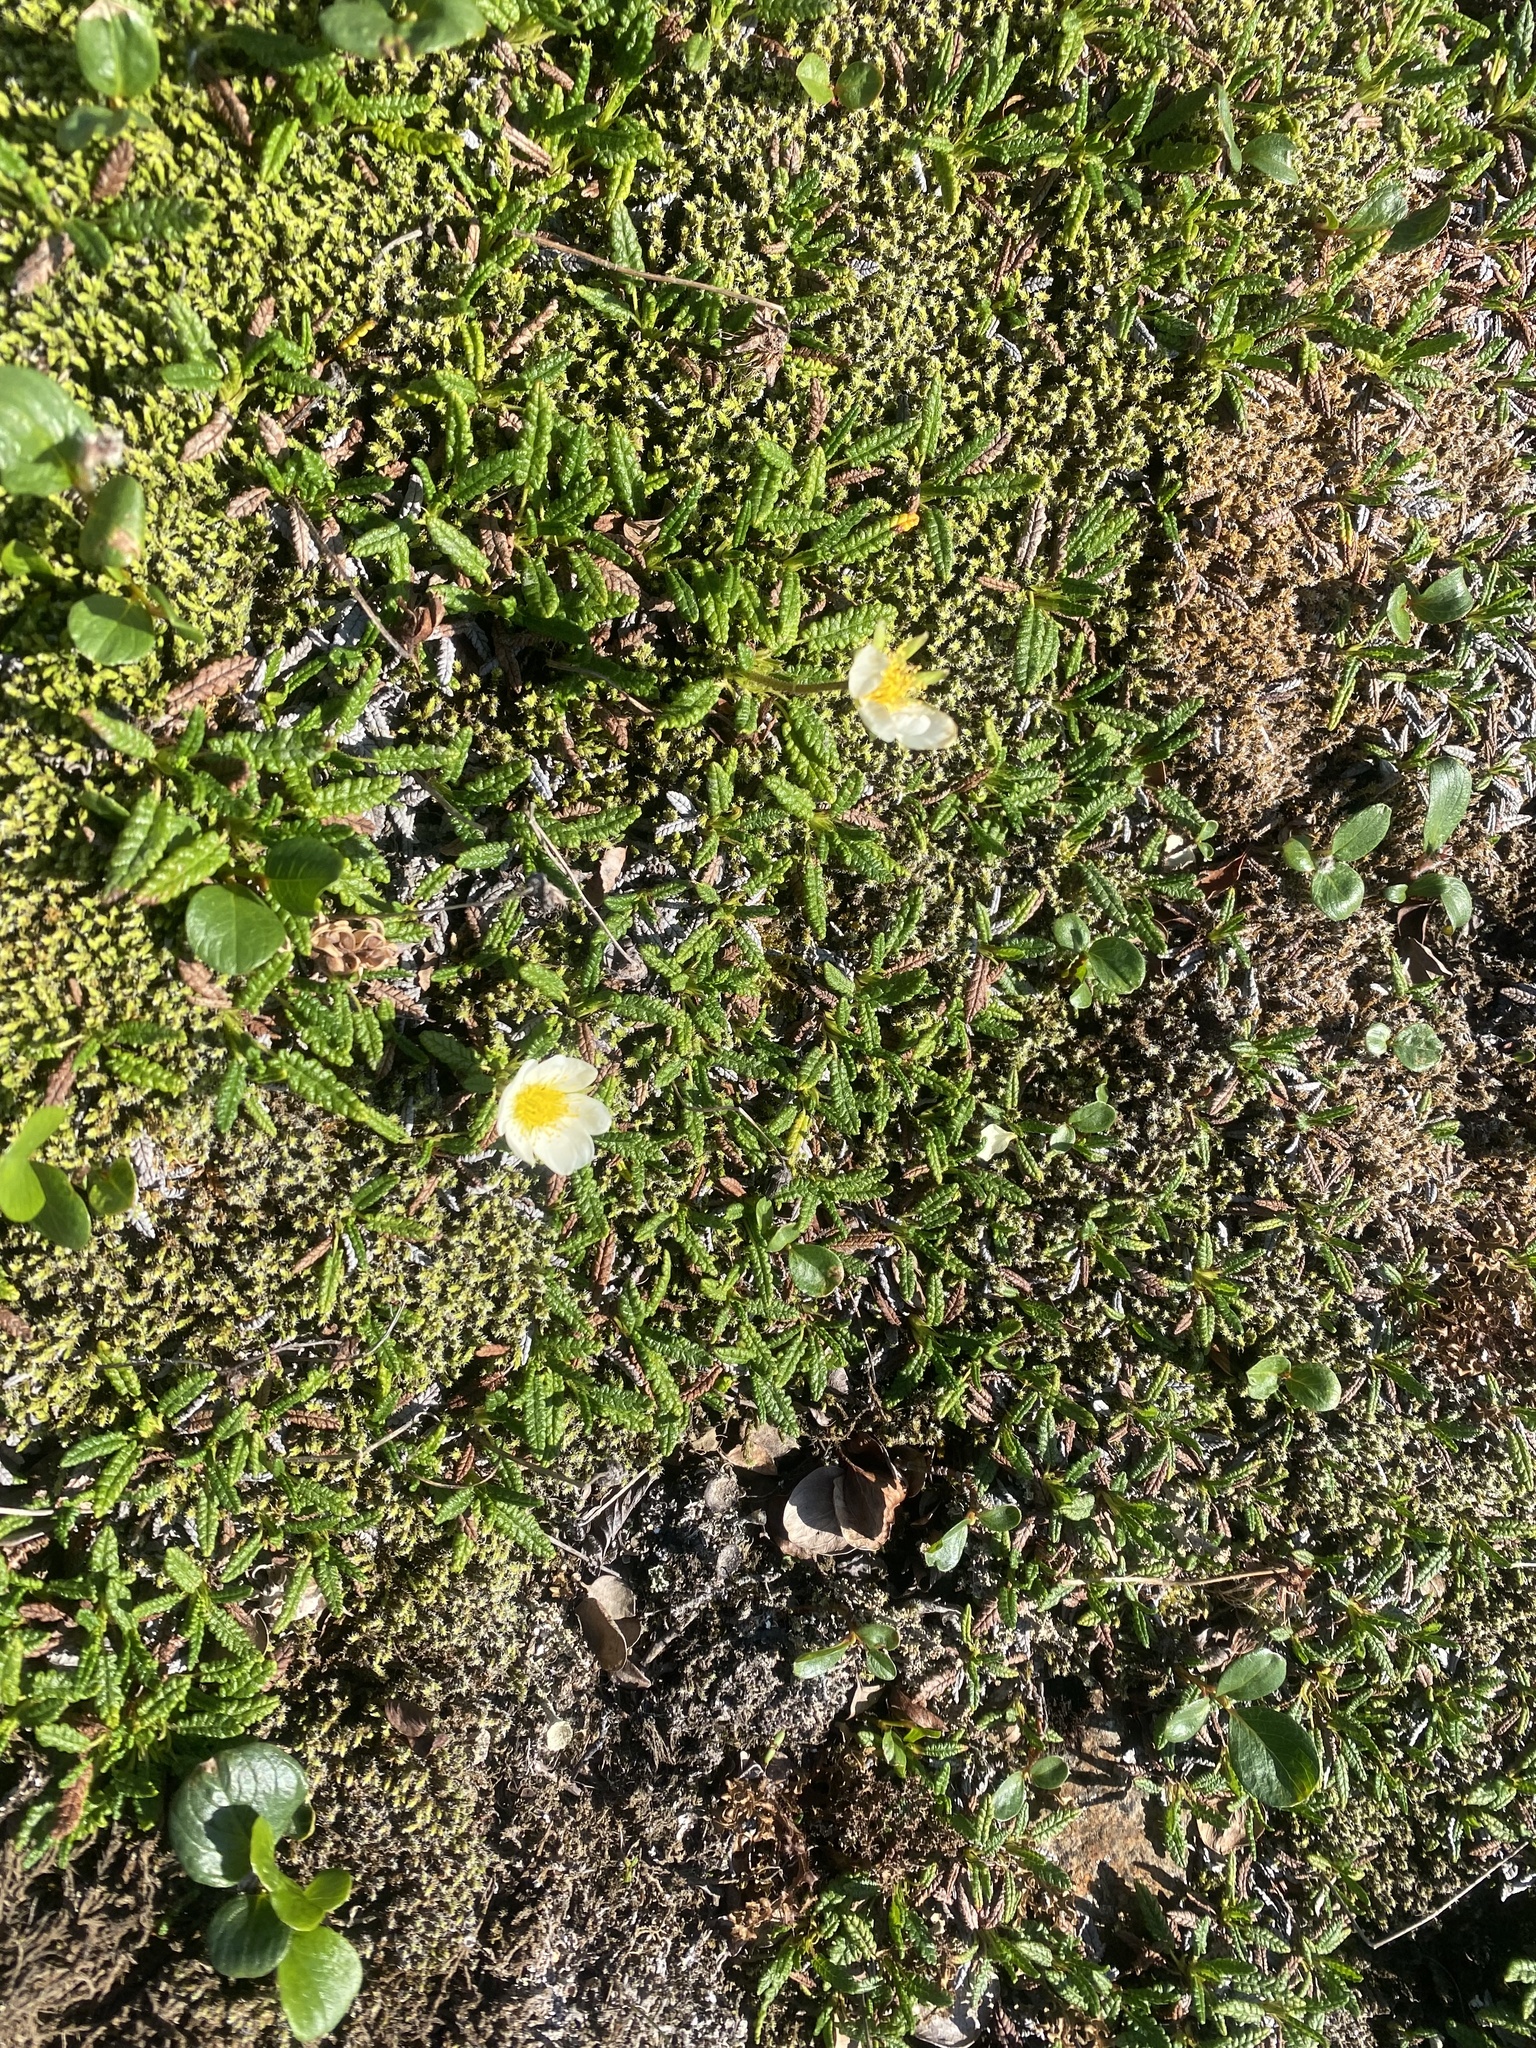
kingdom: Plantae
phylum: Tracheophyta
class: Magnoliopsida
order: Rosales
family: Rosaceae
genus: Dryas
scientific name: Dryas octopetala
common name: Eight-petal mountain-avens
